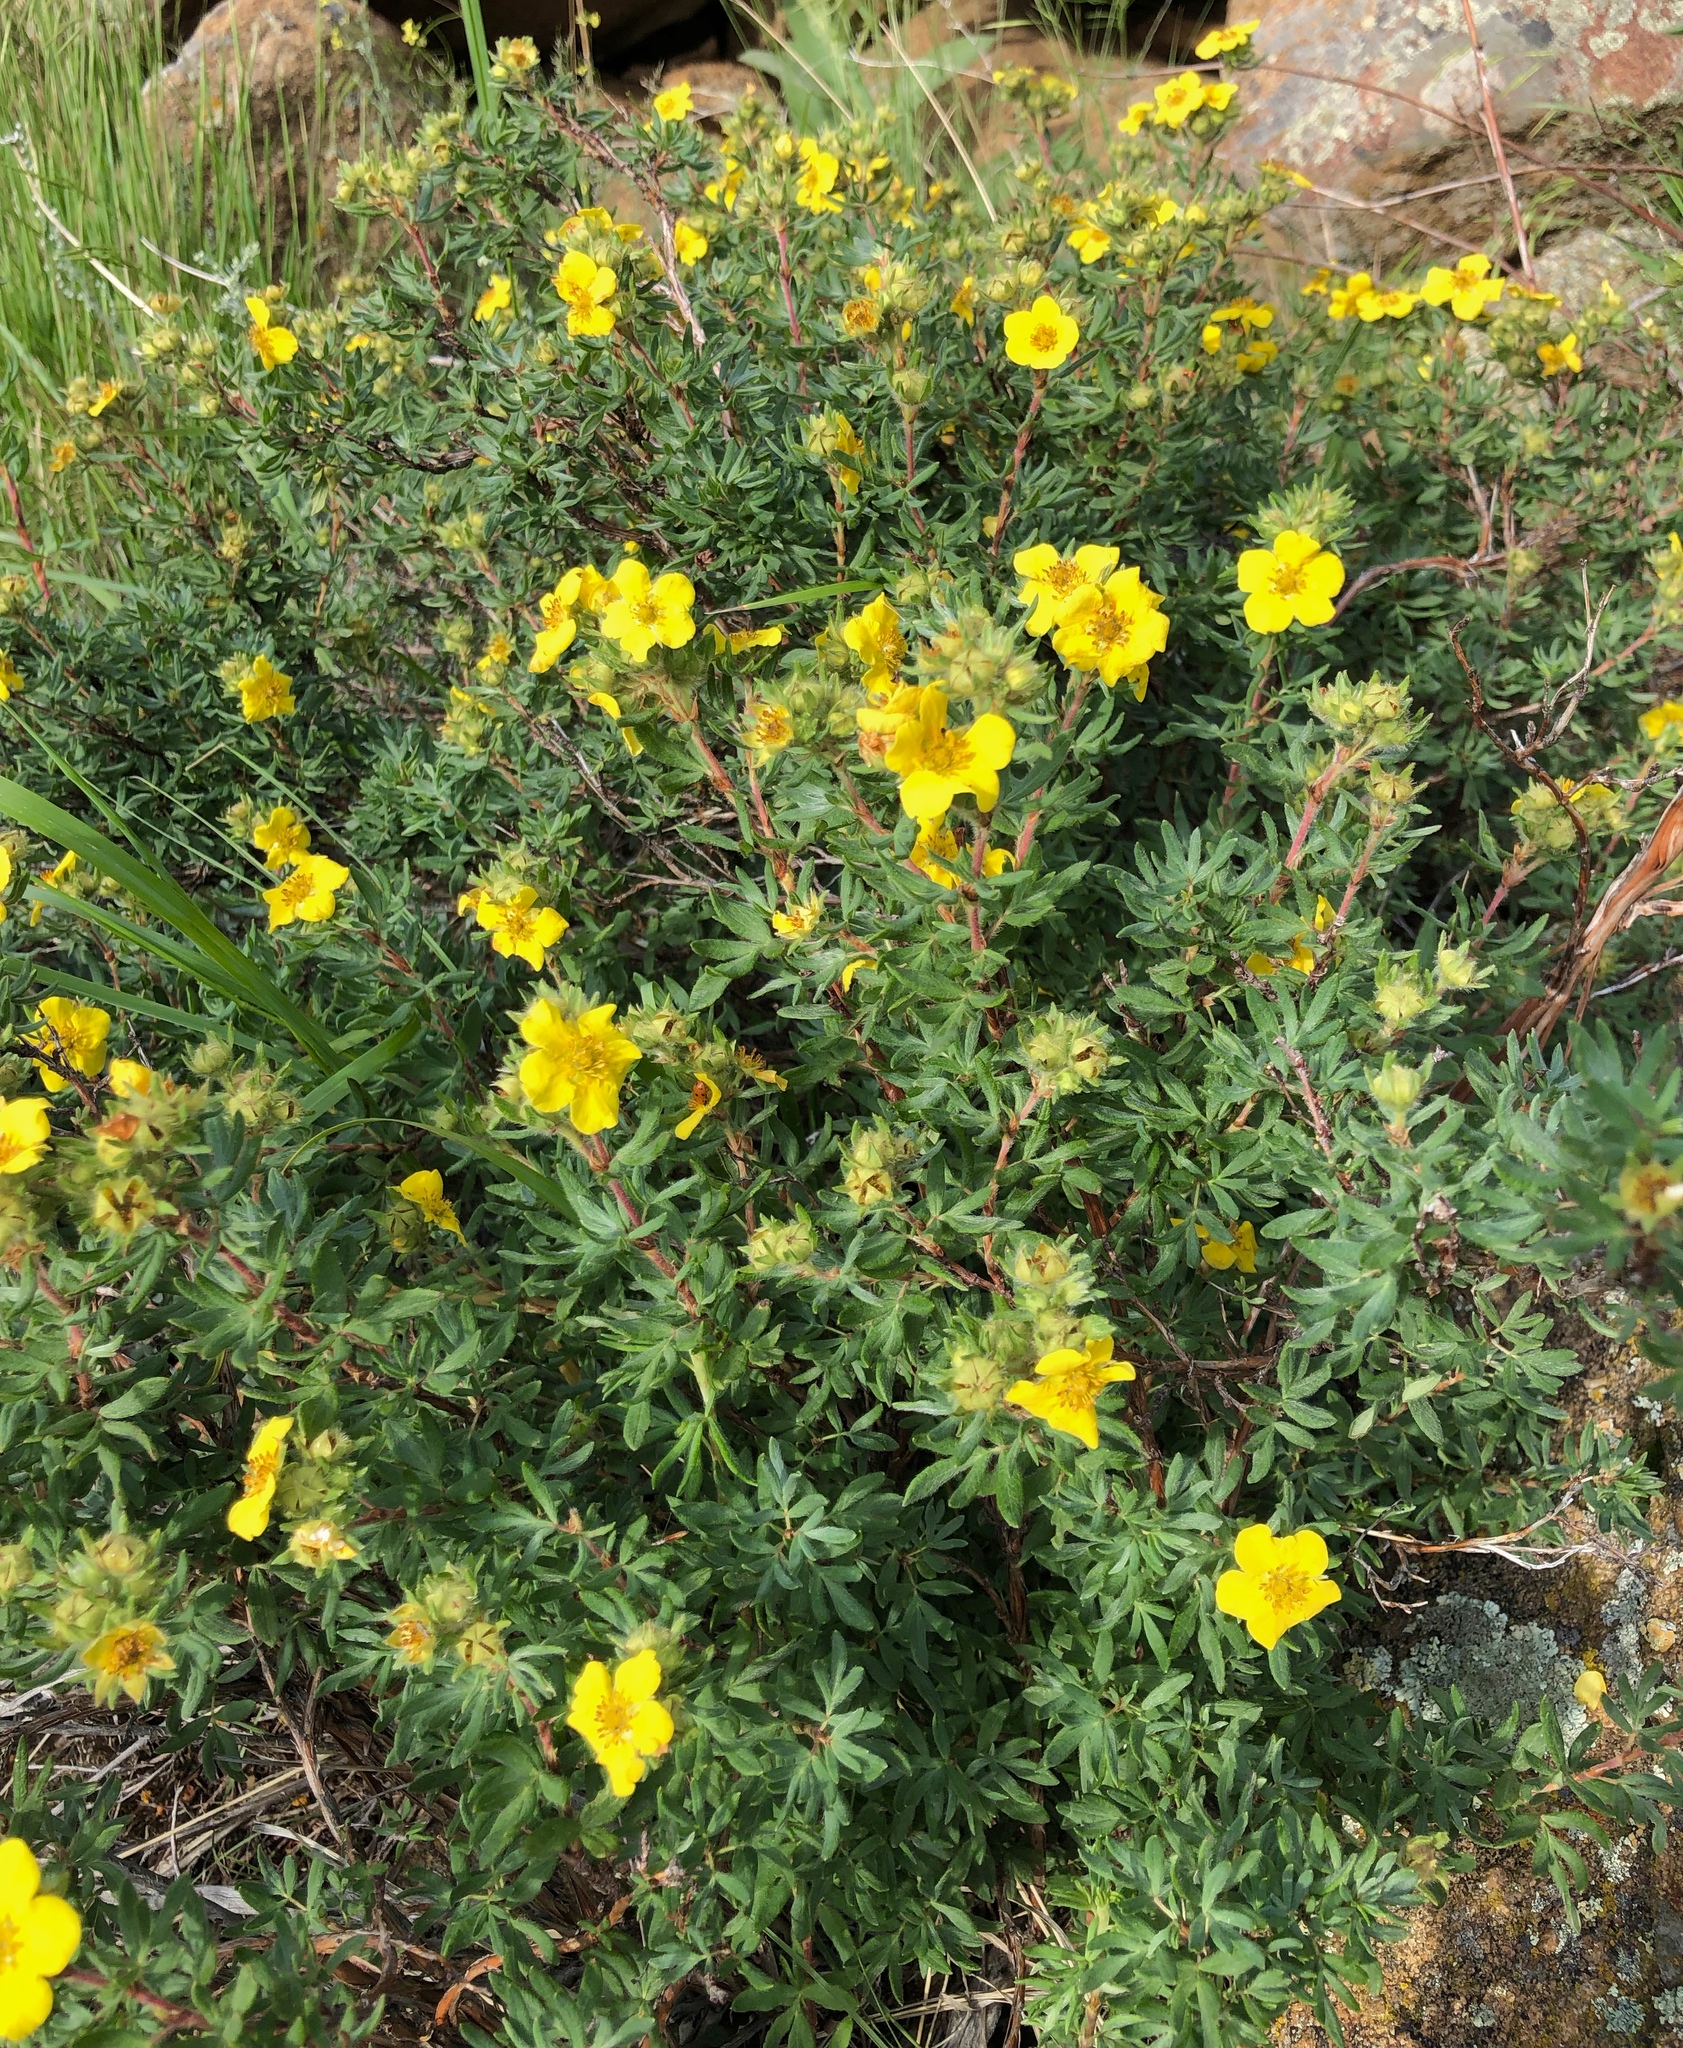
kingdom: Plantae
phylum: Tracheophyta
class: Magnoliopsida
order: Rosales
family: Rosaceae
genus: Dasiphora
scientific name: Dasiphora fruticosa
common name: Shrubby cinquefoil
